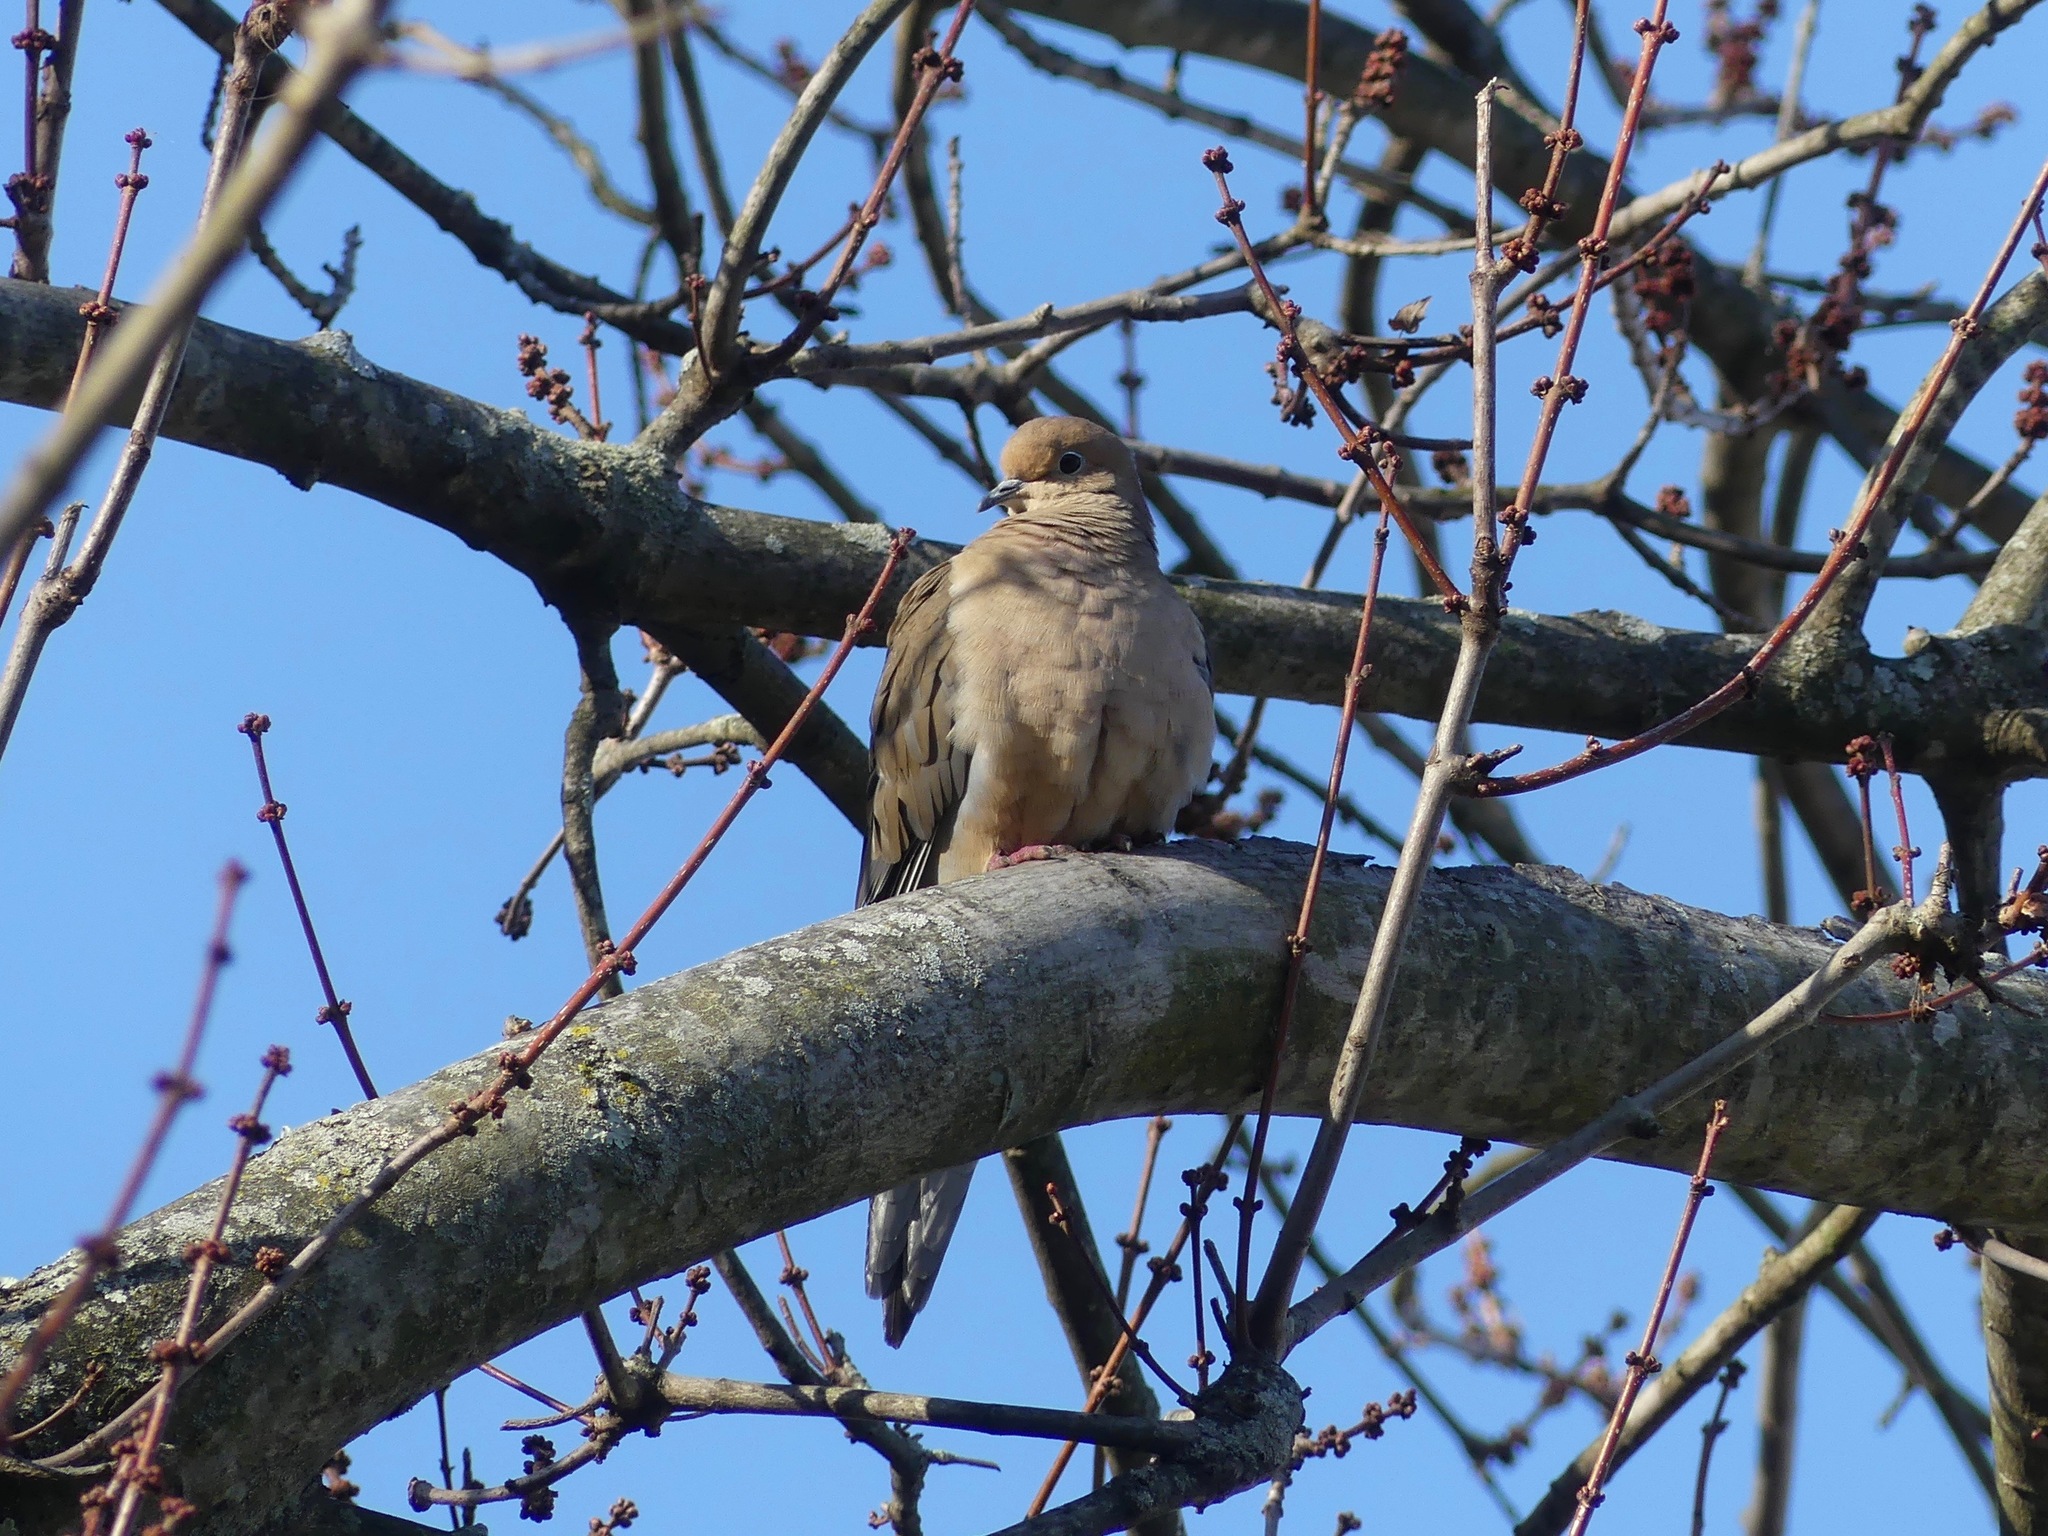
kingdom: Animalia
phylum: Chordata
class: Aves
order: Columbiformes
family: Columbidae
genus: Zenaida
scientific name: Zenaida macroura
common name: Mourning dove
